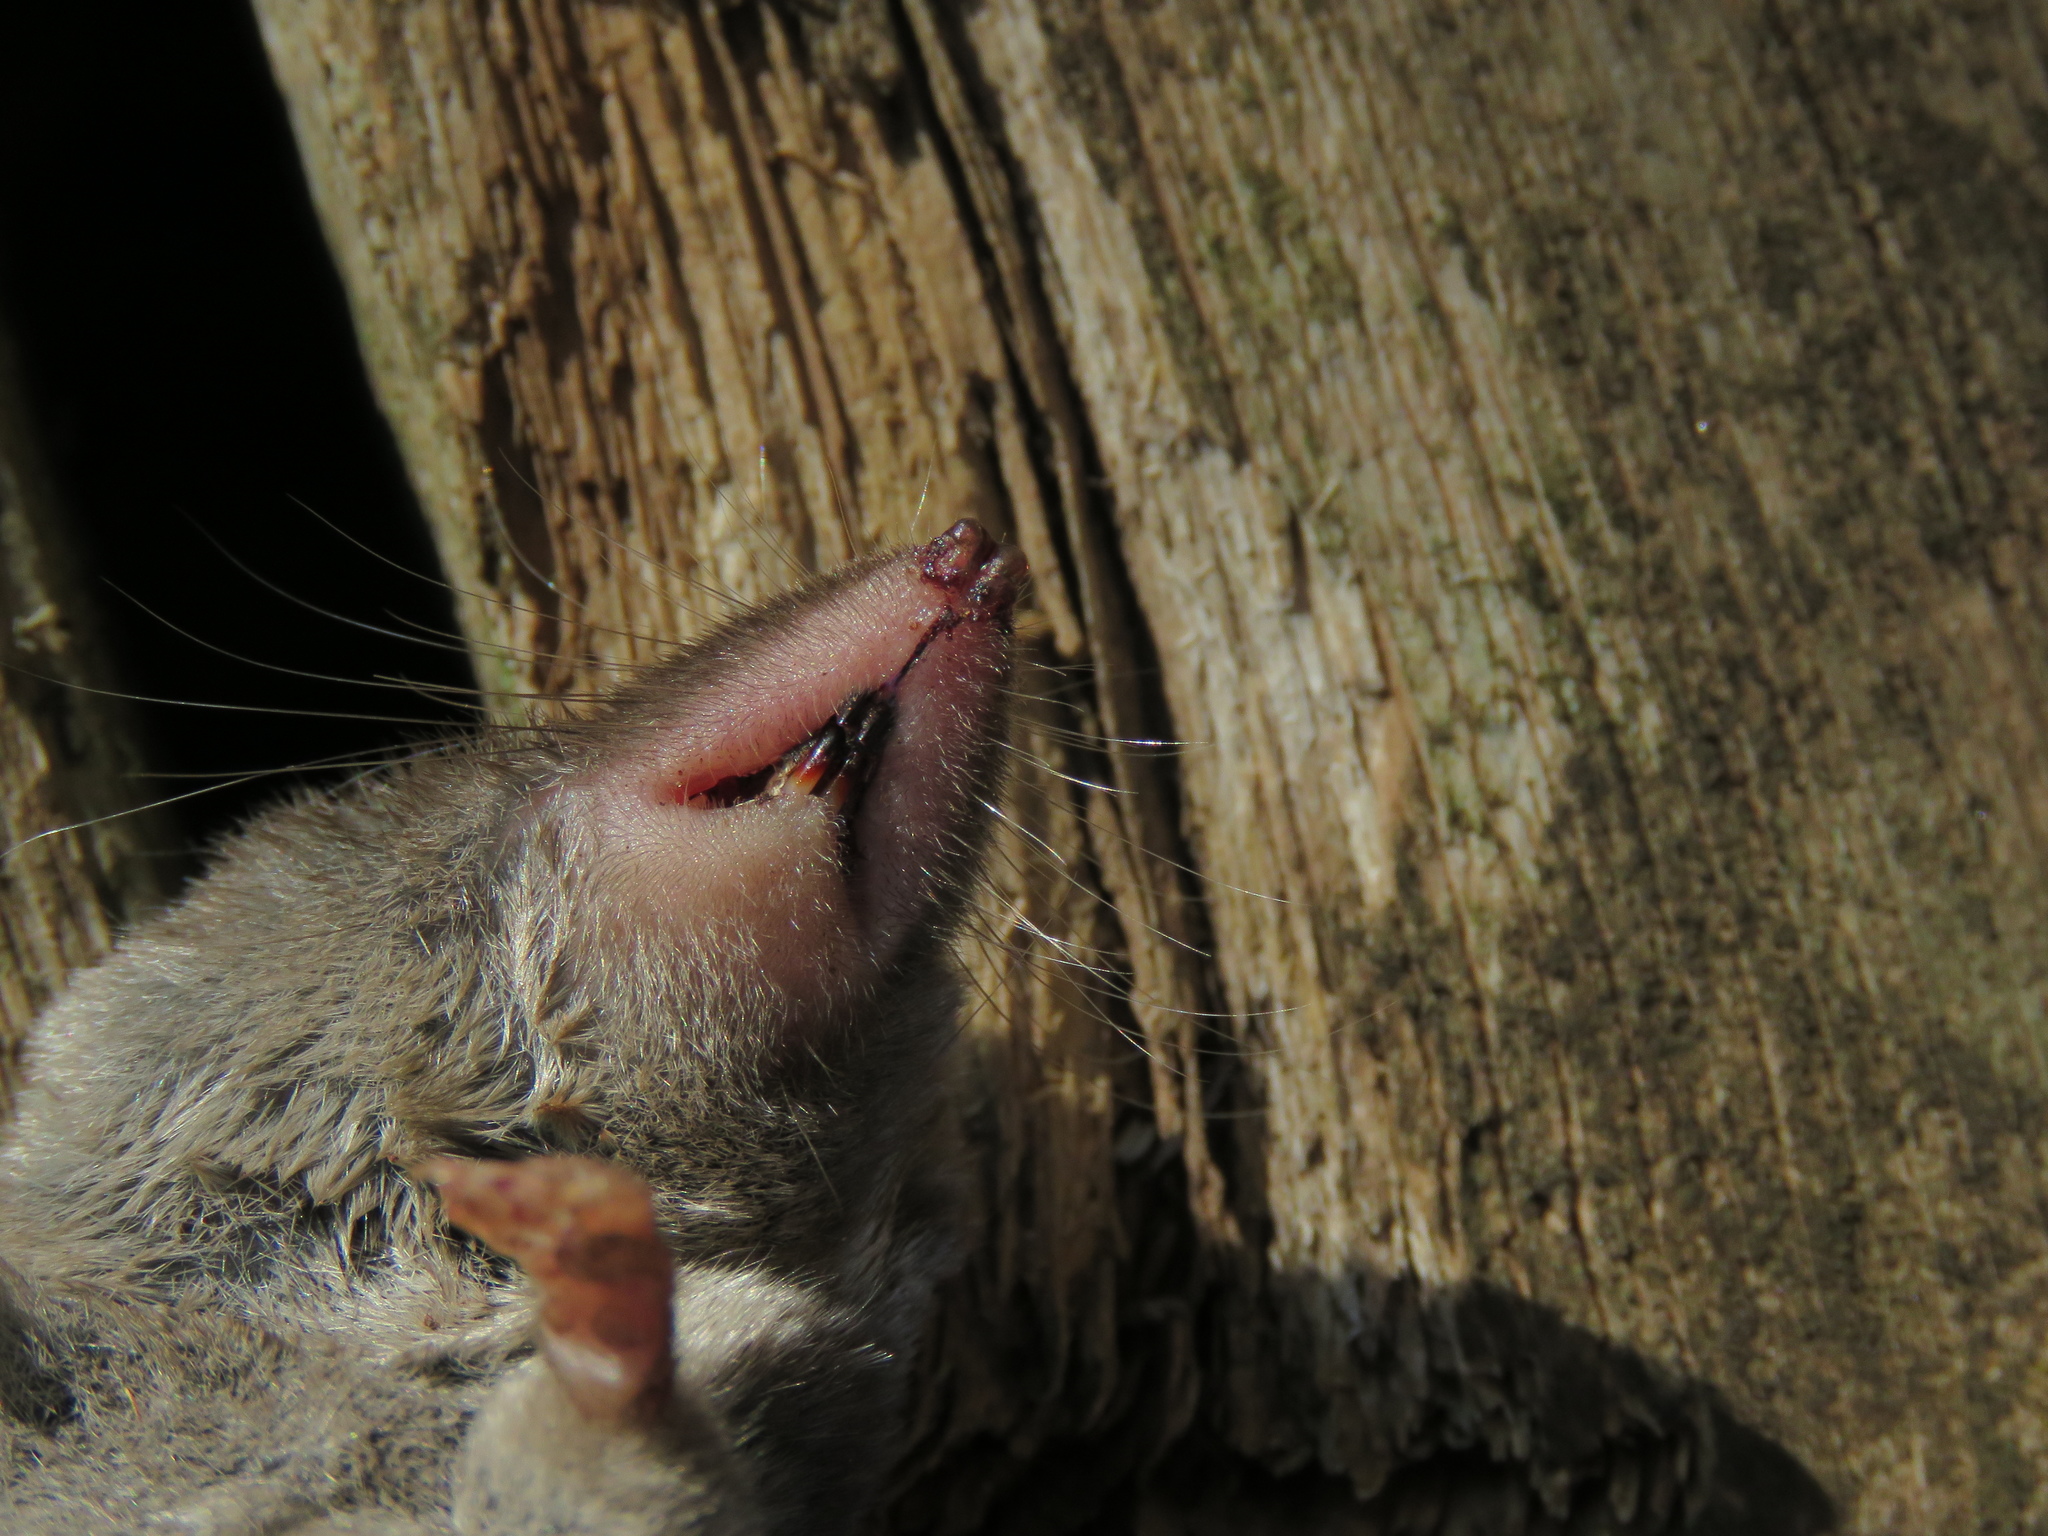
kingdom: Animalia
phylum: Chordata
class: Mammalia
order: Soricomorpha
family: Soricidae
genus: Blarina
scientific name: Blarina brevicauda
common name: Northern short-tailed shrew
